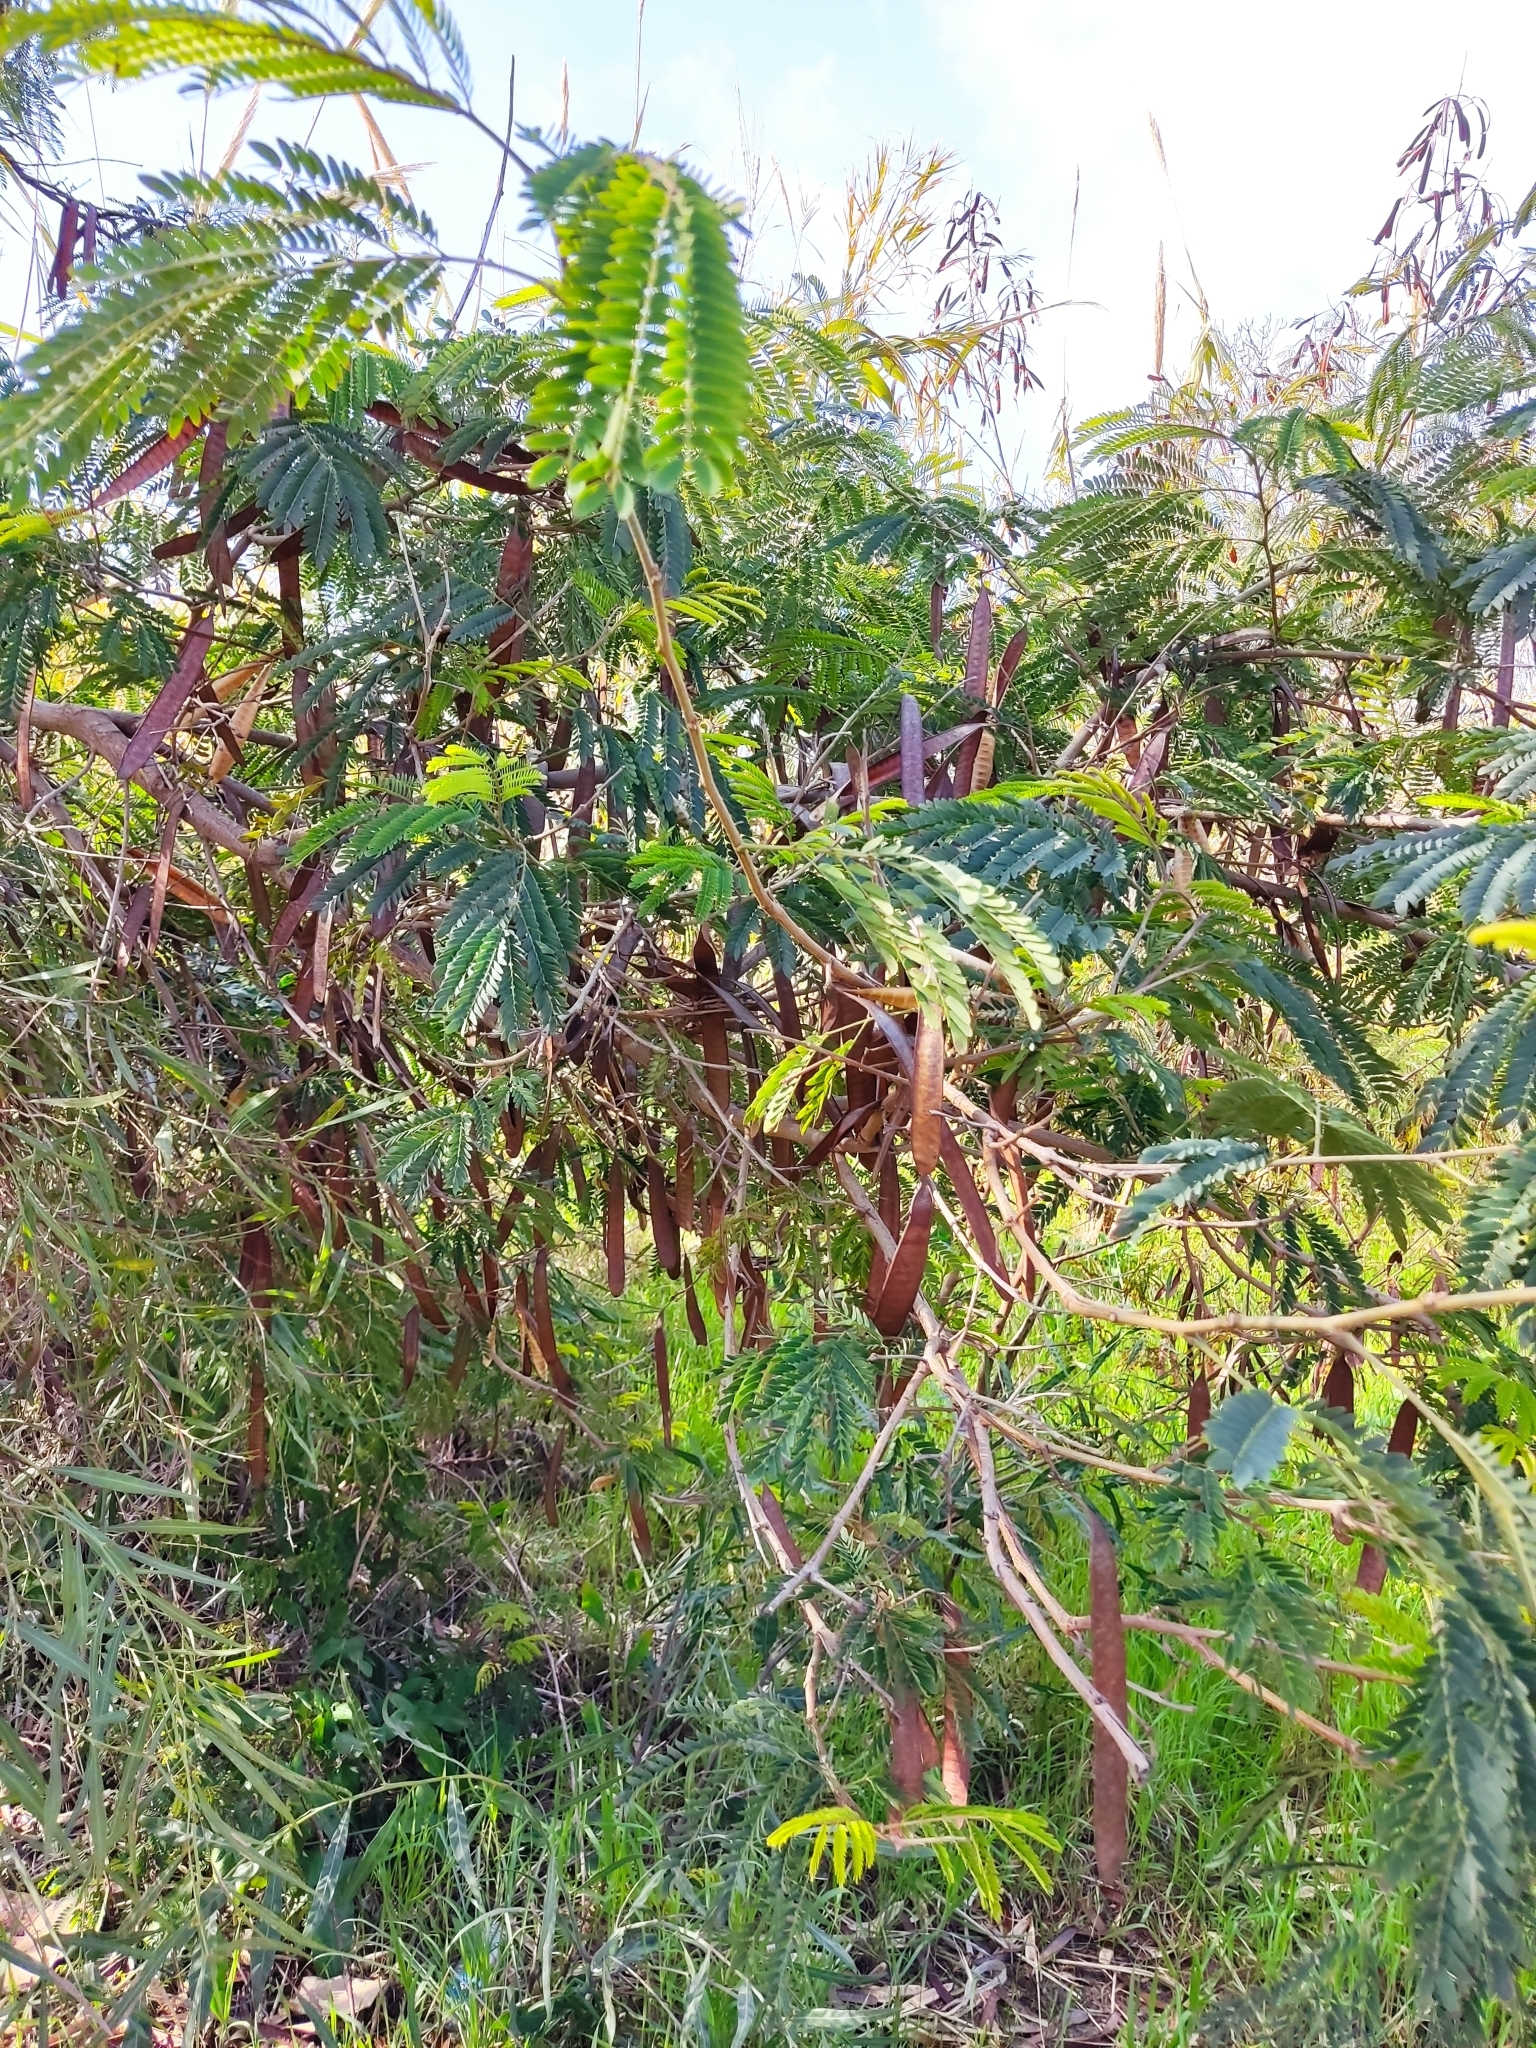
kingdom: Plantae
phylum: Tracheophyta
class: Magnoliopsida
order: Fabales
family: Fabaceae
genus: Leucaena
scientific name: Leucaena leucocephala
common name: White leadtree
